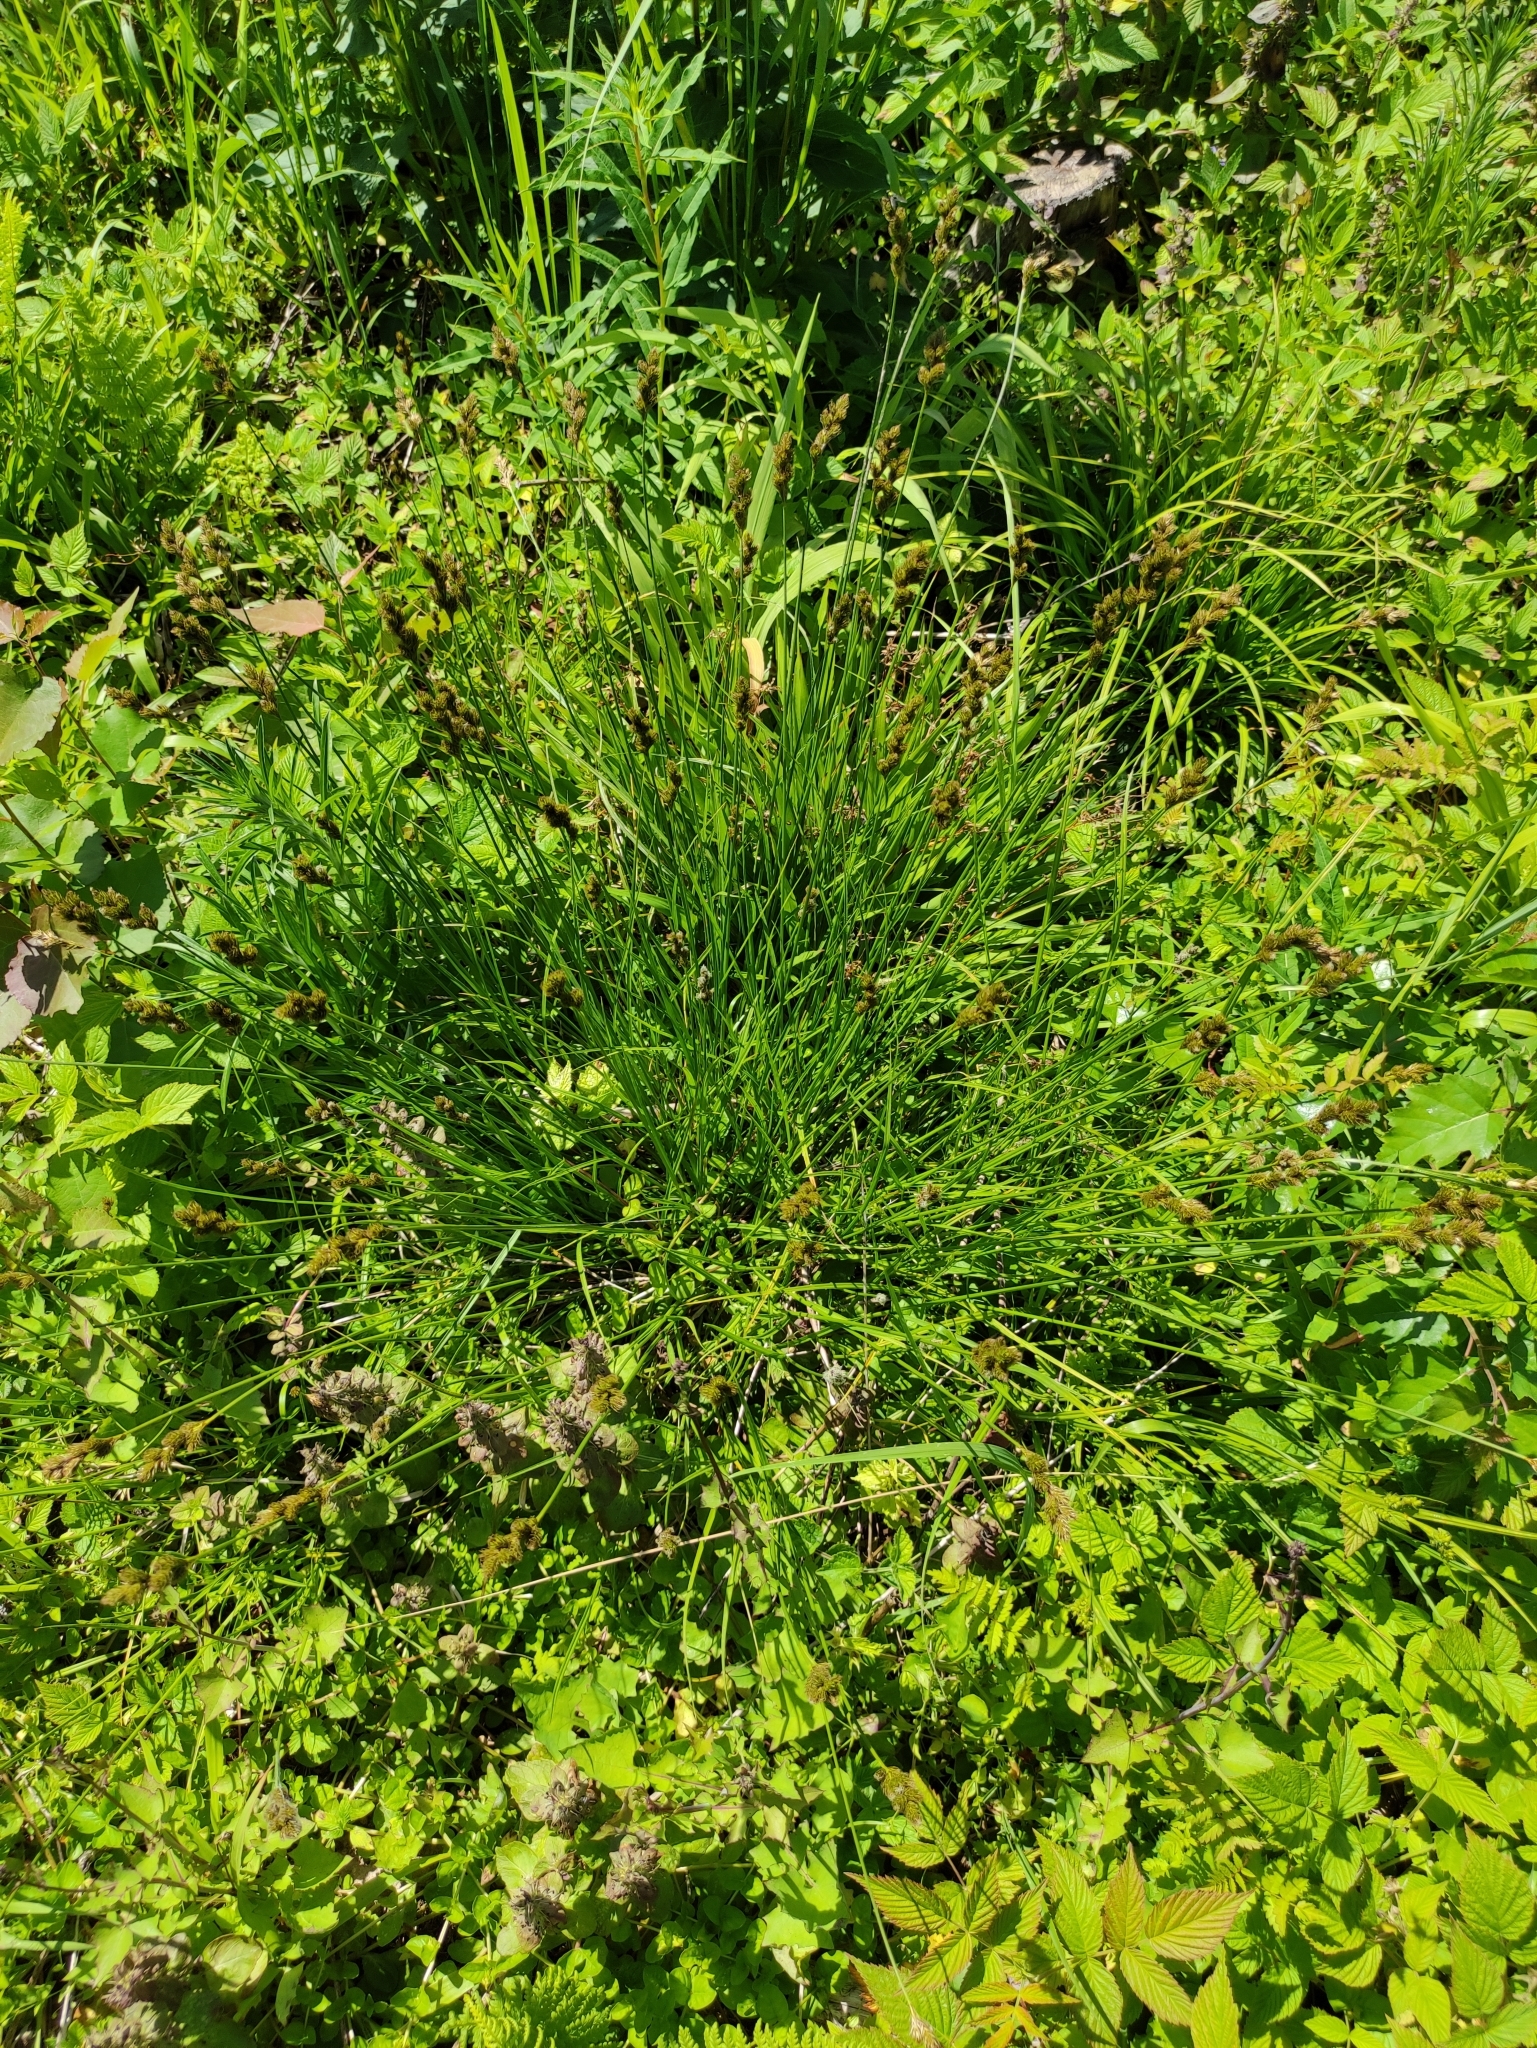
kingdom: Plantae
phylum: Tracheophyta
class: Liliopsida
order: Poales
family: Cyperaceae
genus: Carex
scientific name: Carex leporina
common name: Oval sedge
